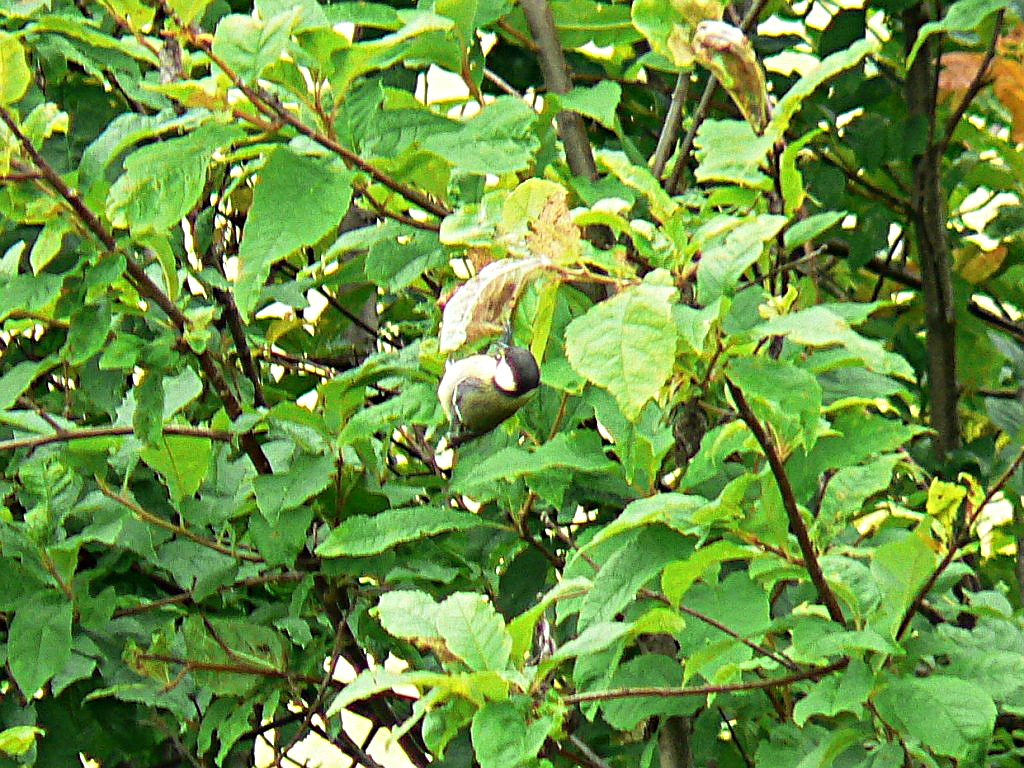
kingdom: Animalia
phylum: Chordata
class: Aves
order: Passeriformes
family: Paridae
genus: Parus
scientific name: Parus major
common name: Great tit
